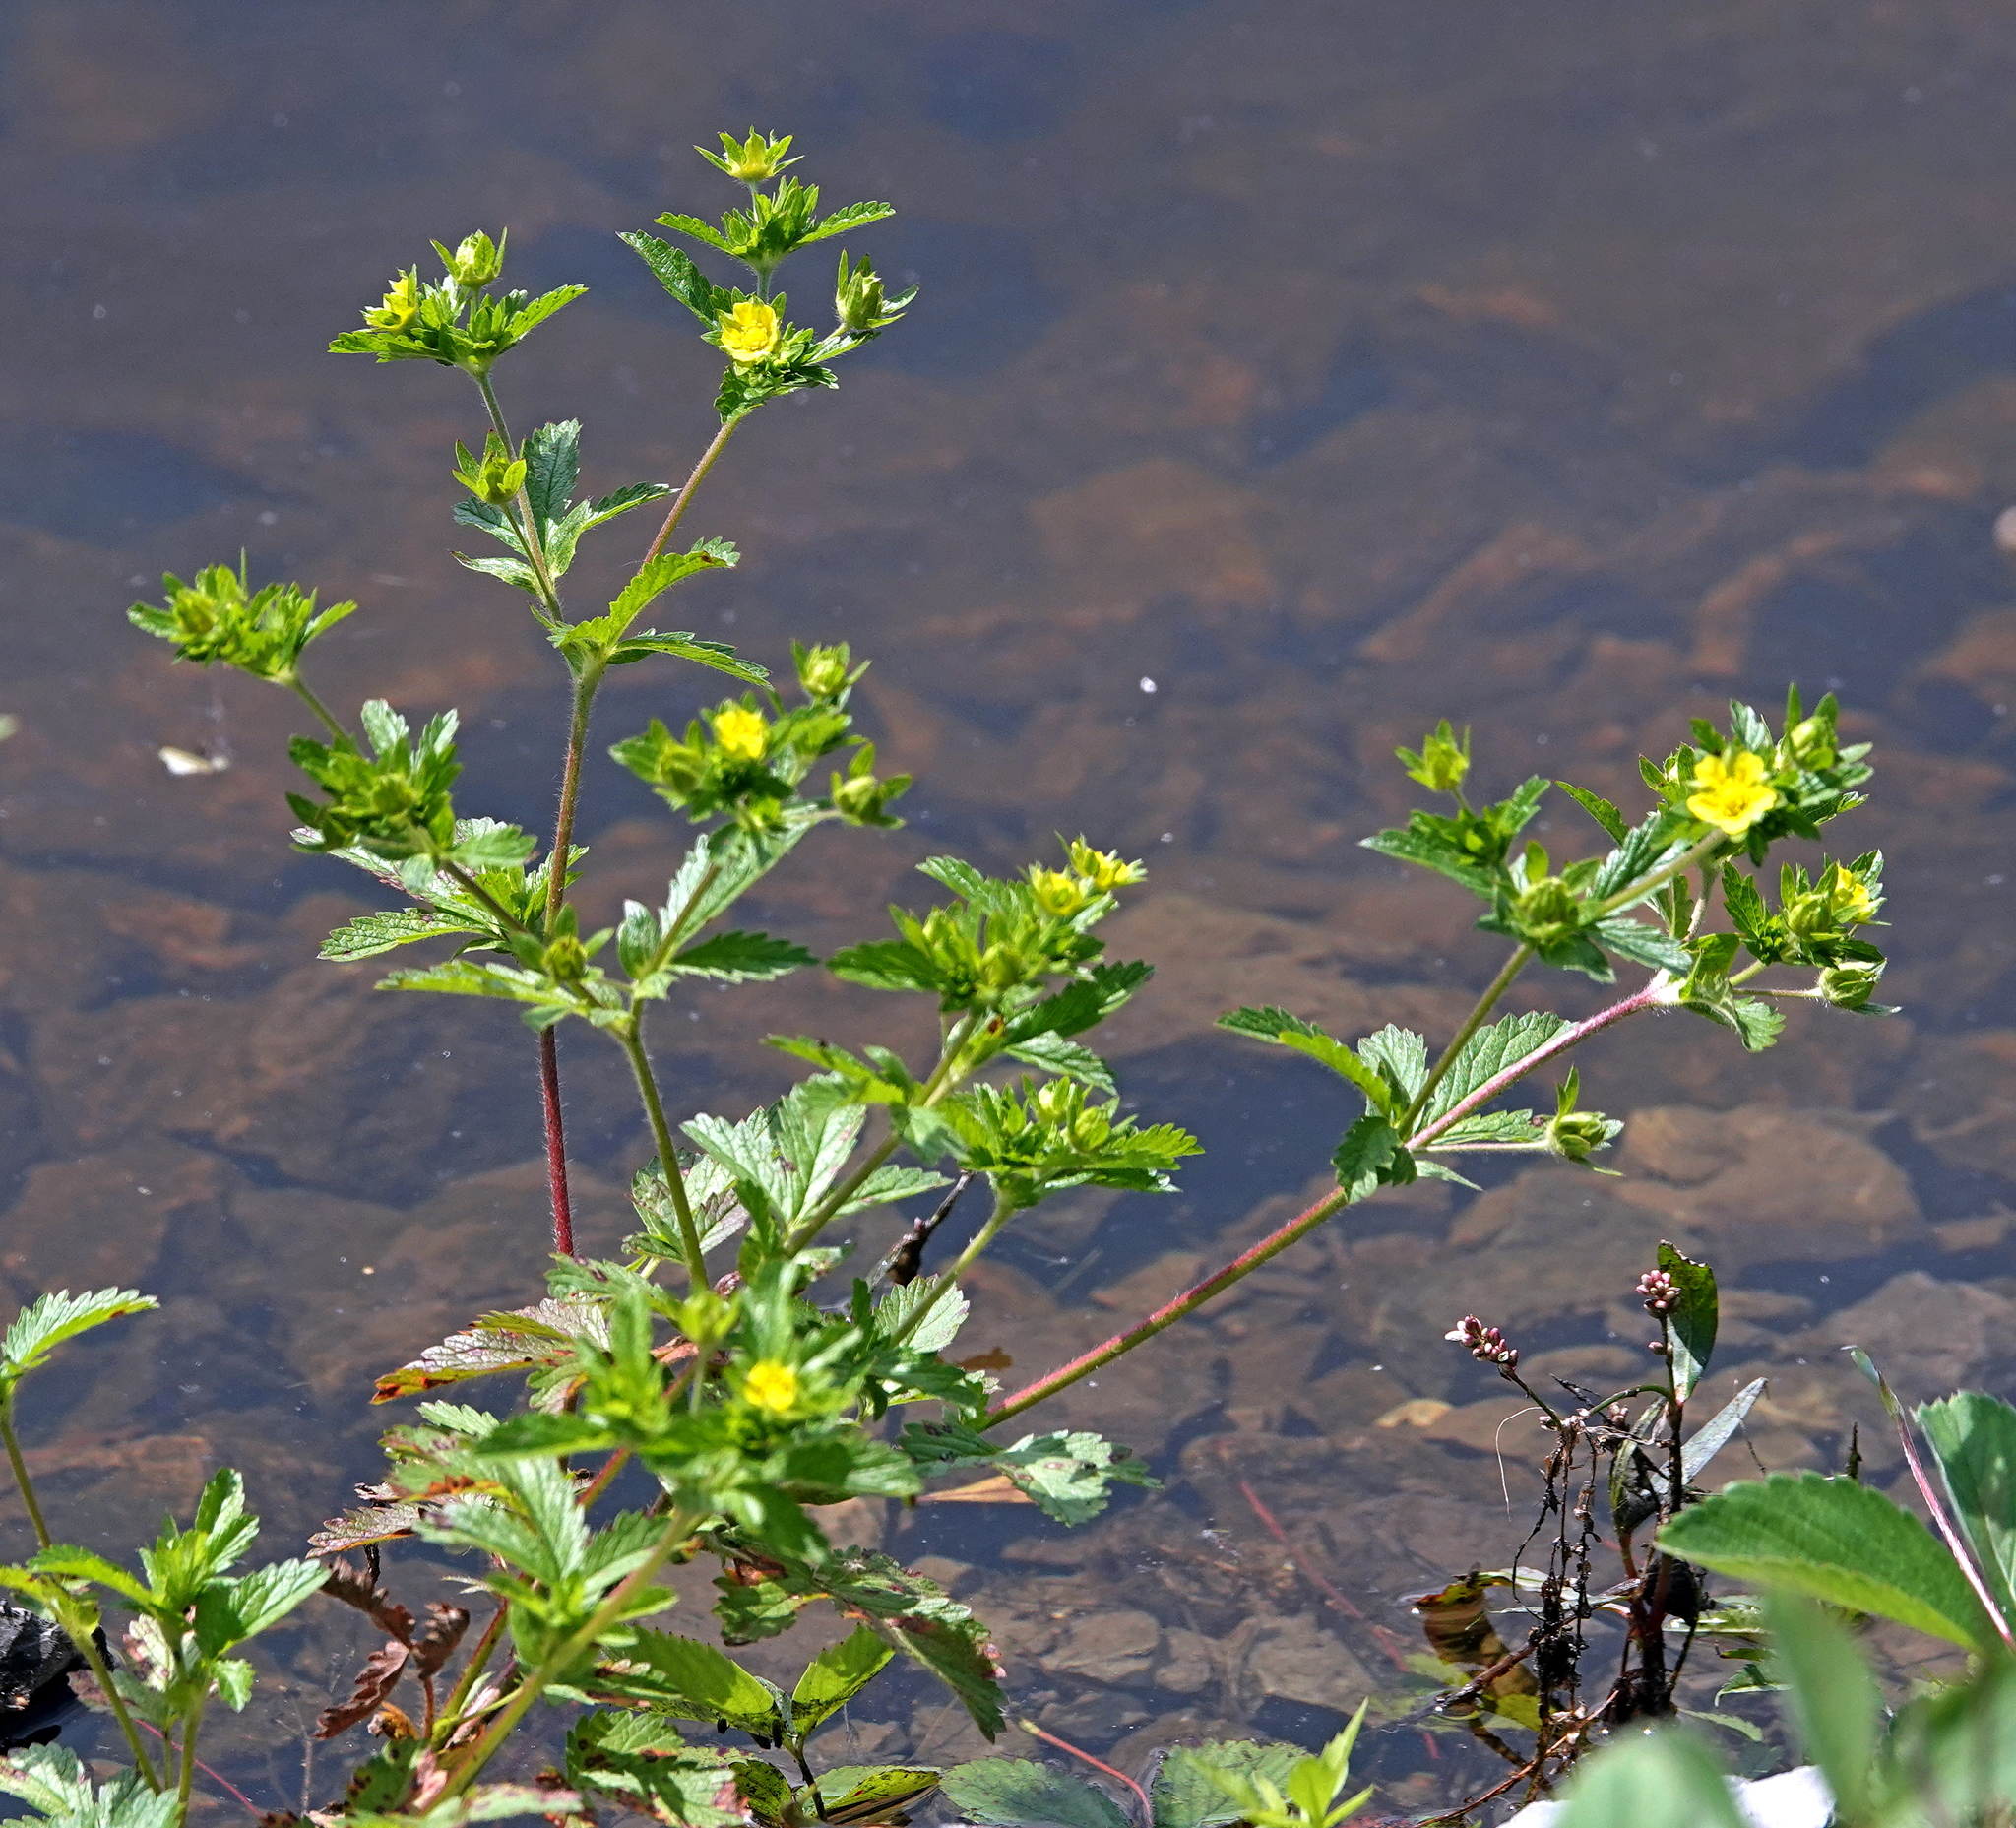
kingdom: Plantae
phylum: Tracheophyta
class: Magnoliopsida
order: Rosales
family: Rosaceae
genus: Potentilla
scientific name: Potentilla norvegica
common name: Ternate-leaved cinquefoil
